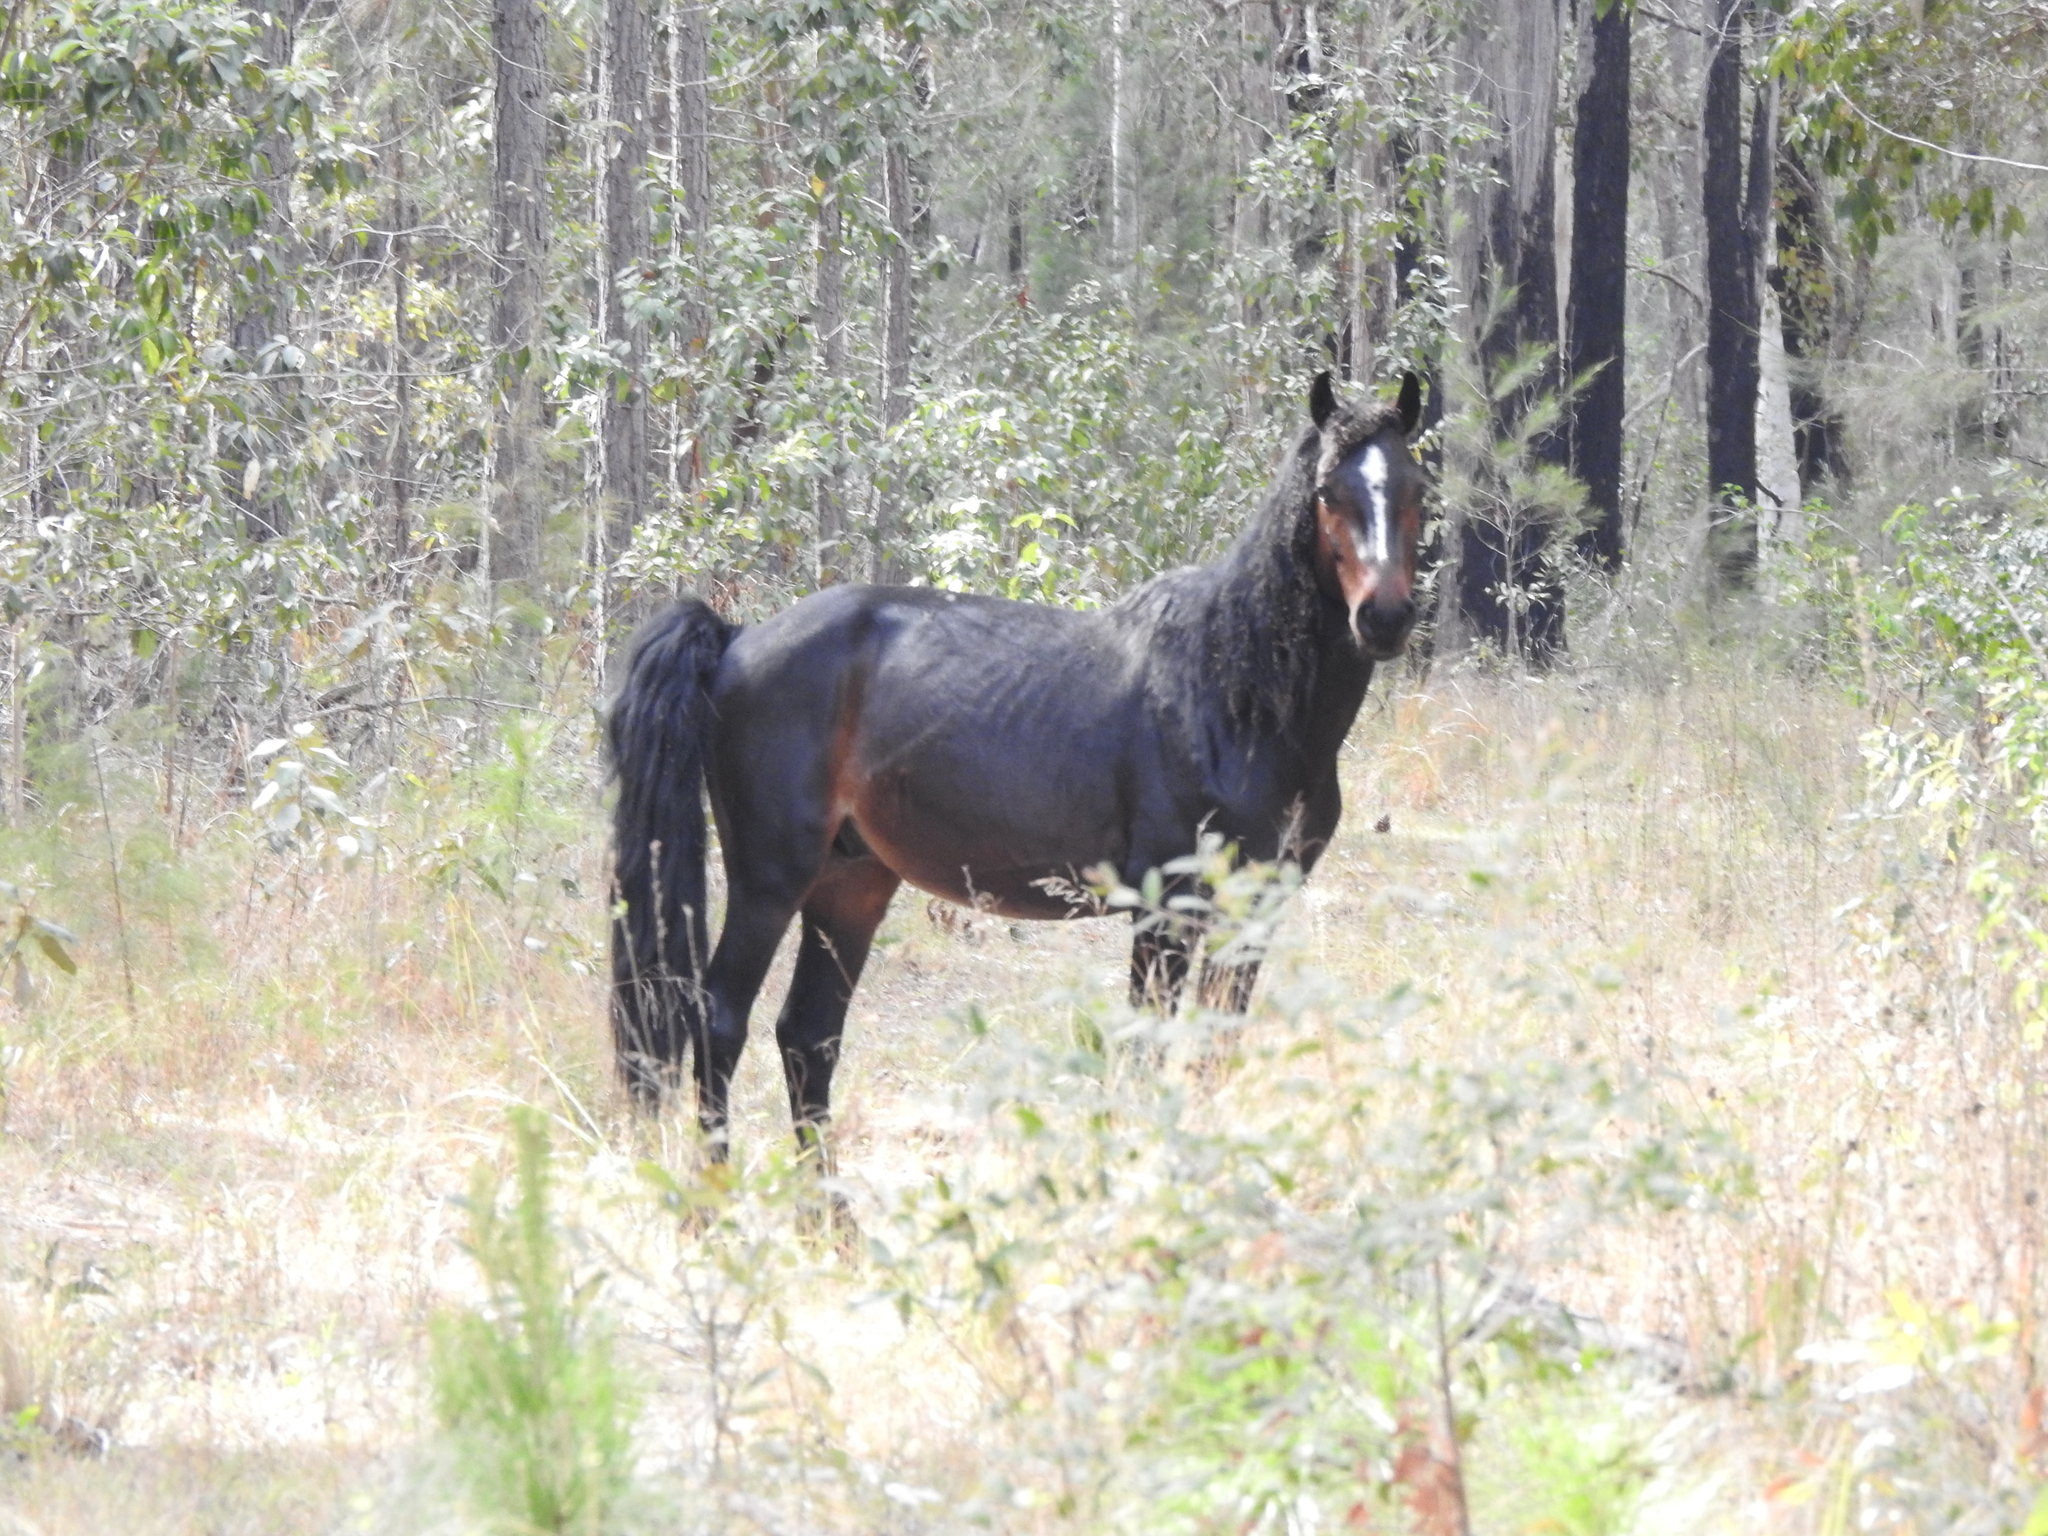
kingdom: Animalia
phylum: Chordata
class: Mammalia
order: Perissodactyla
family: Equidae
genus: Equus
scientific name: Equus caballus
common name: Horse
